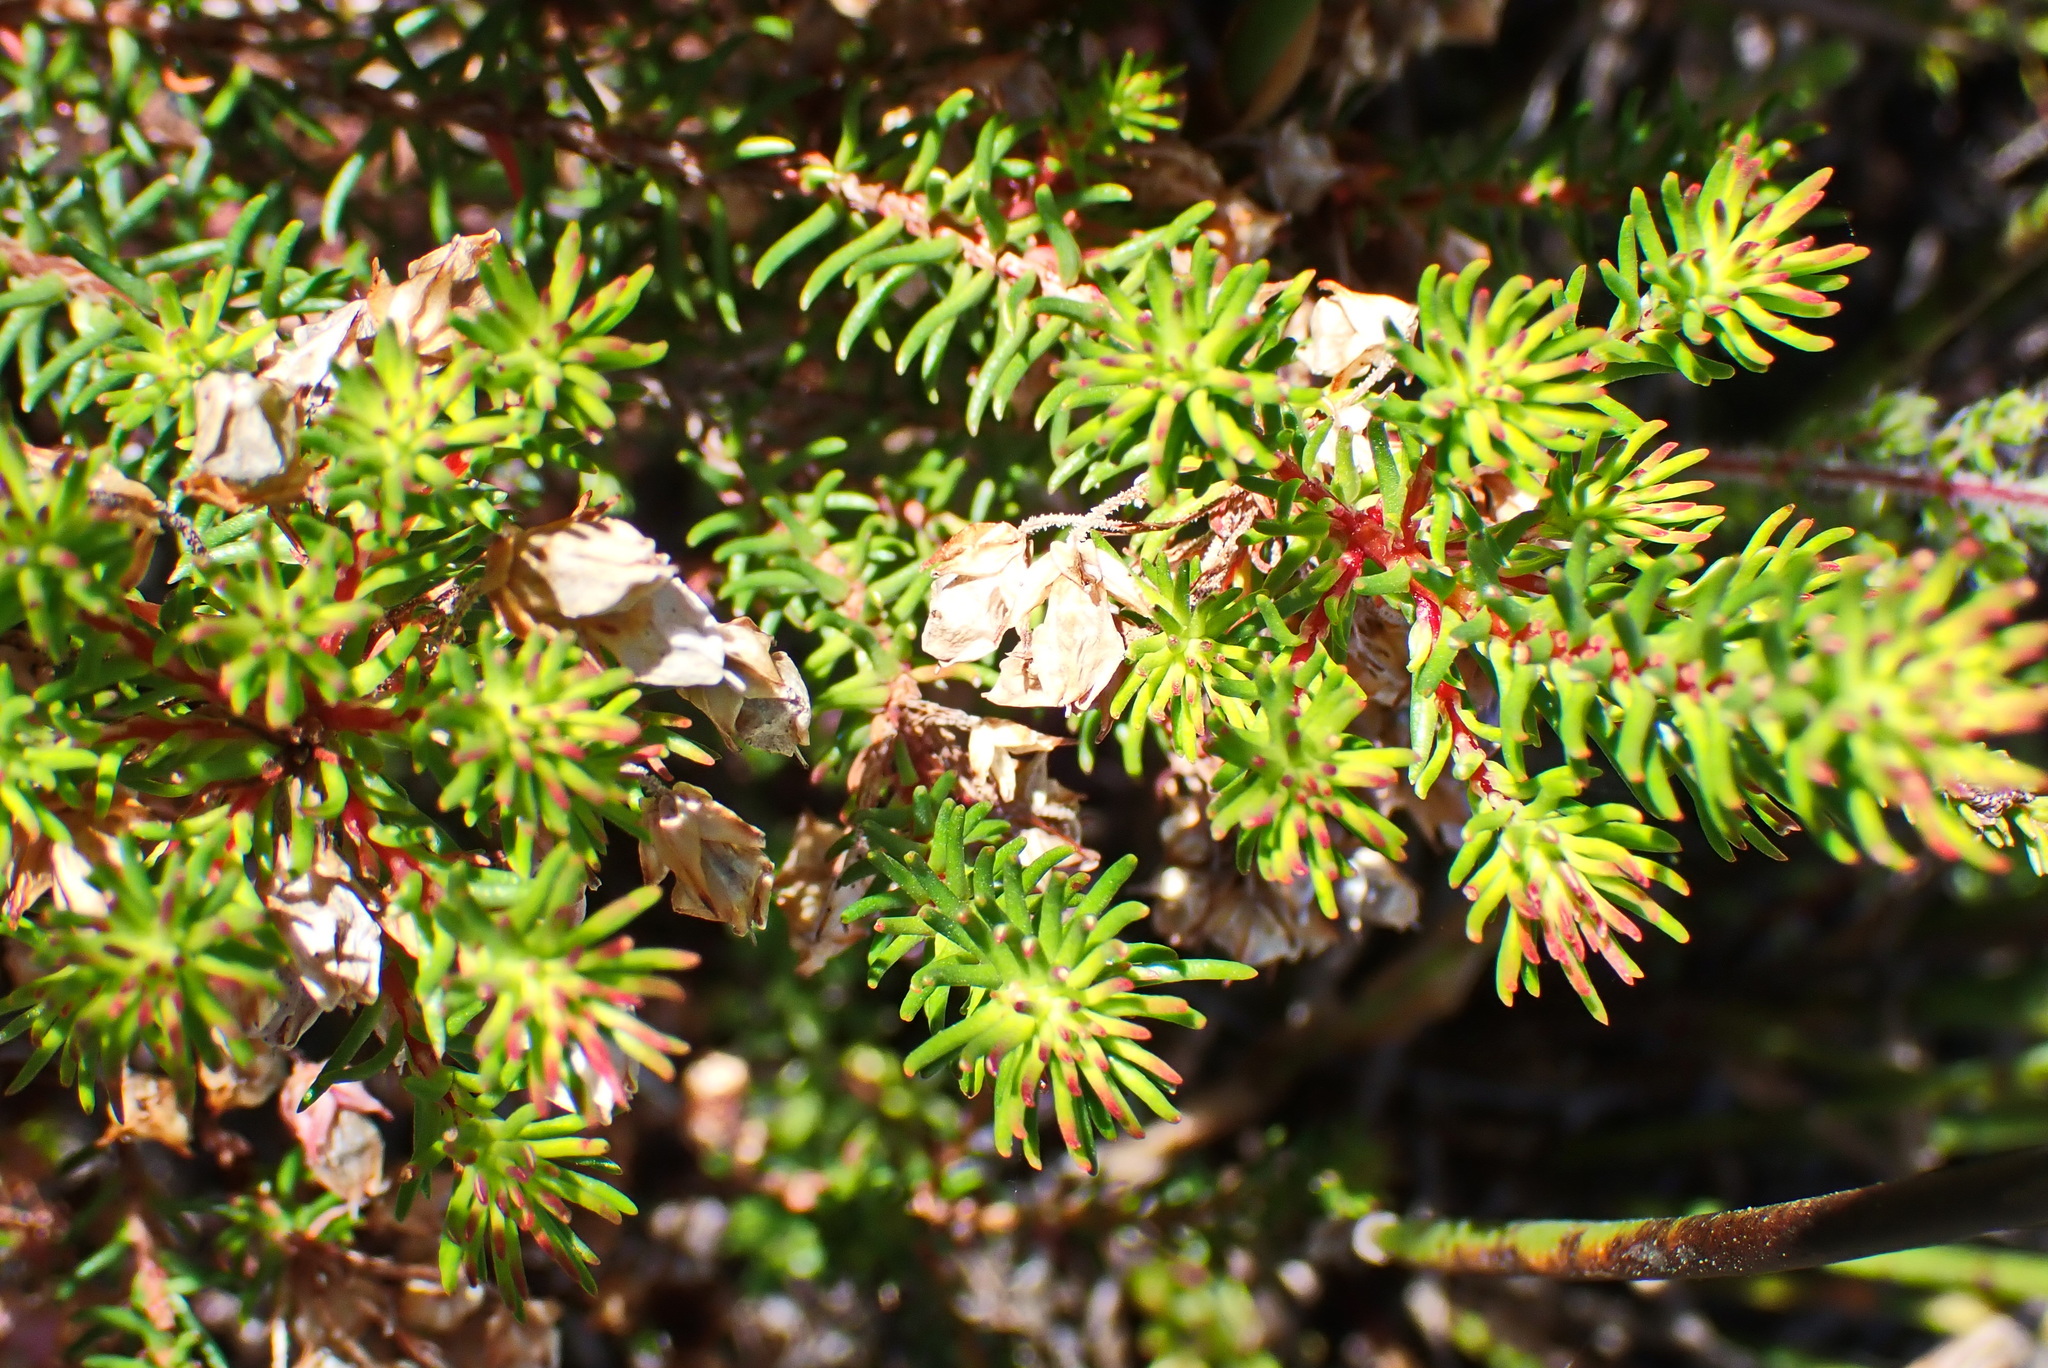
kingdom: Plantae
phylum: Tracheophyta
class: Magnoliopsida
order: Ericales
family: Ericaceae
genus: Erica
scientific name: Erica cubica
